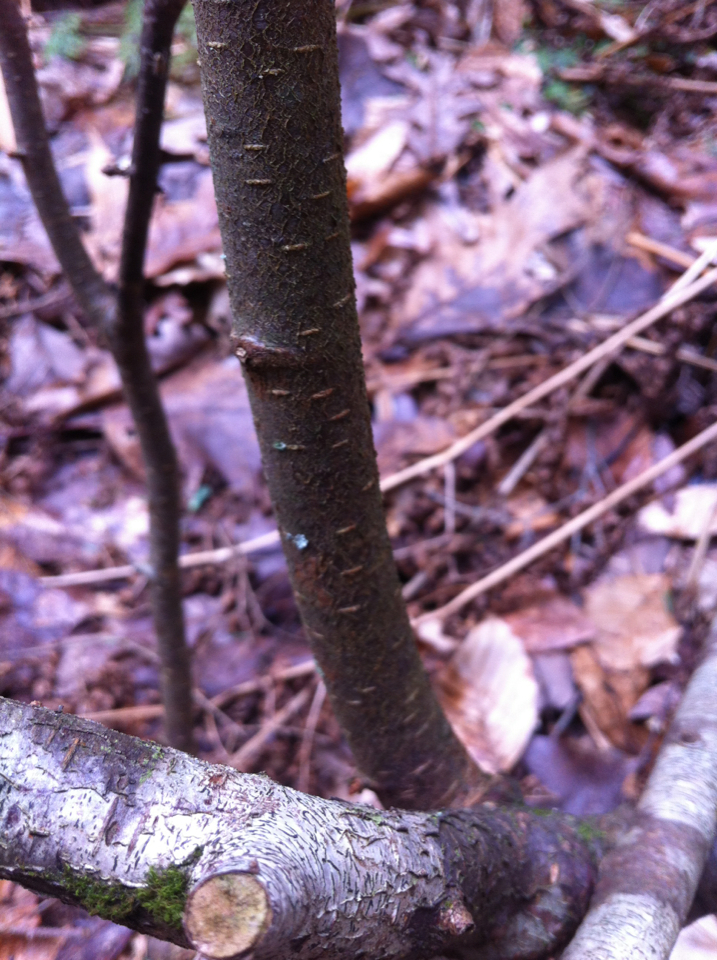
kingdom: Plantae
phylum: Tracheophyta
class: Magnoliopsida
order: Fagales
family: Betulaceae
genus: Betula
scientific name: Betula lenta
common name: Black birch
